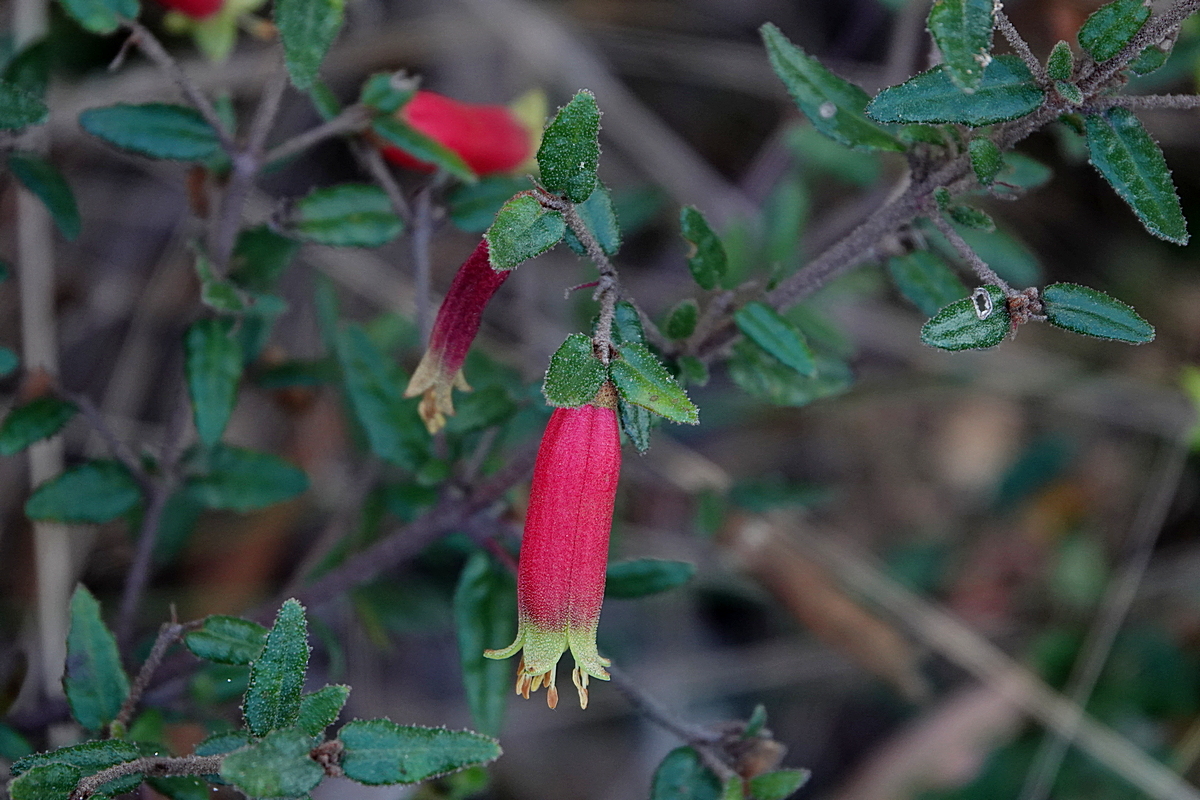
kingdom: Plantae
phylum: Tracheophyta
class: Magnoliopsida
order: Sapindales
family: Rutaceae
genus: Correa
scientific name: Correa reflexa
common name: Common correa
